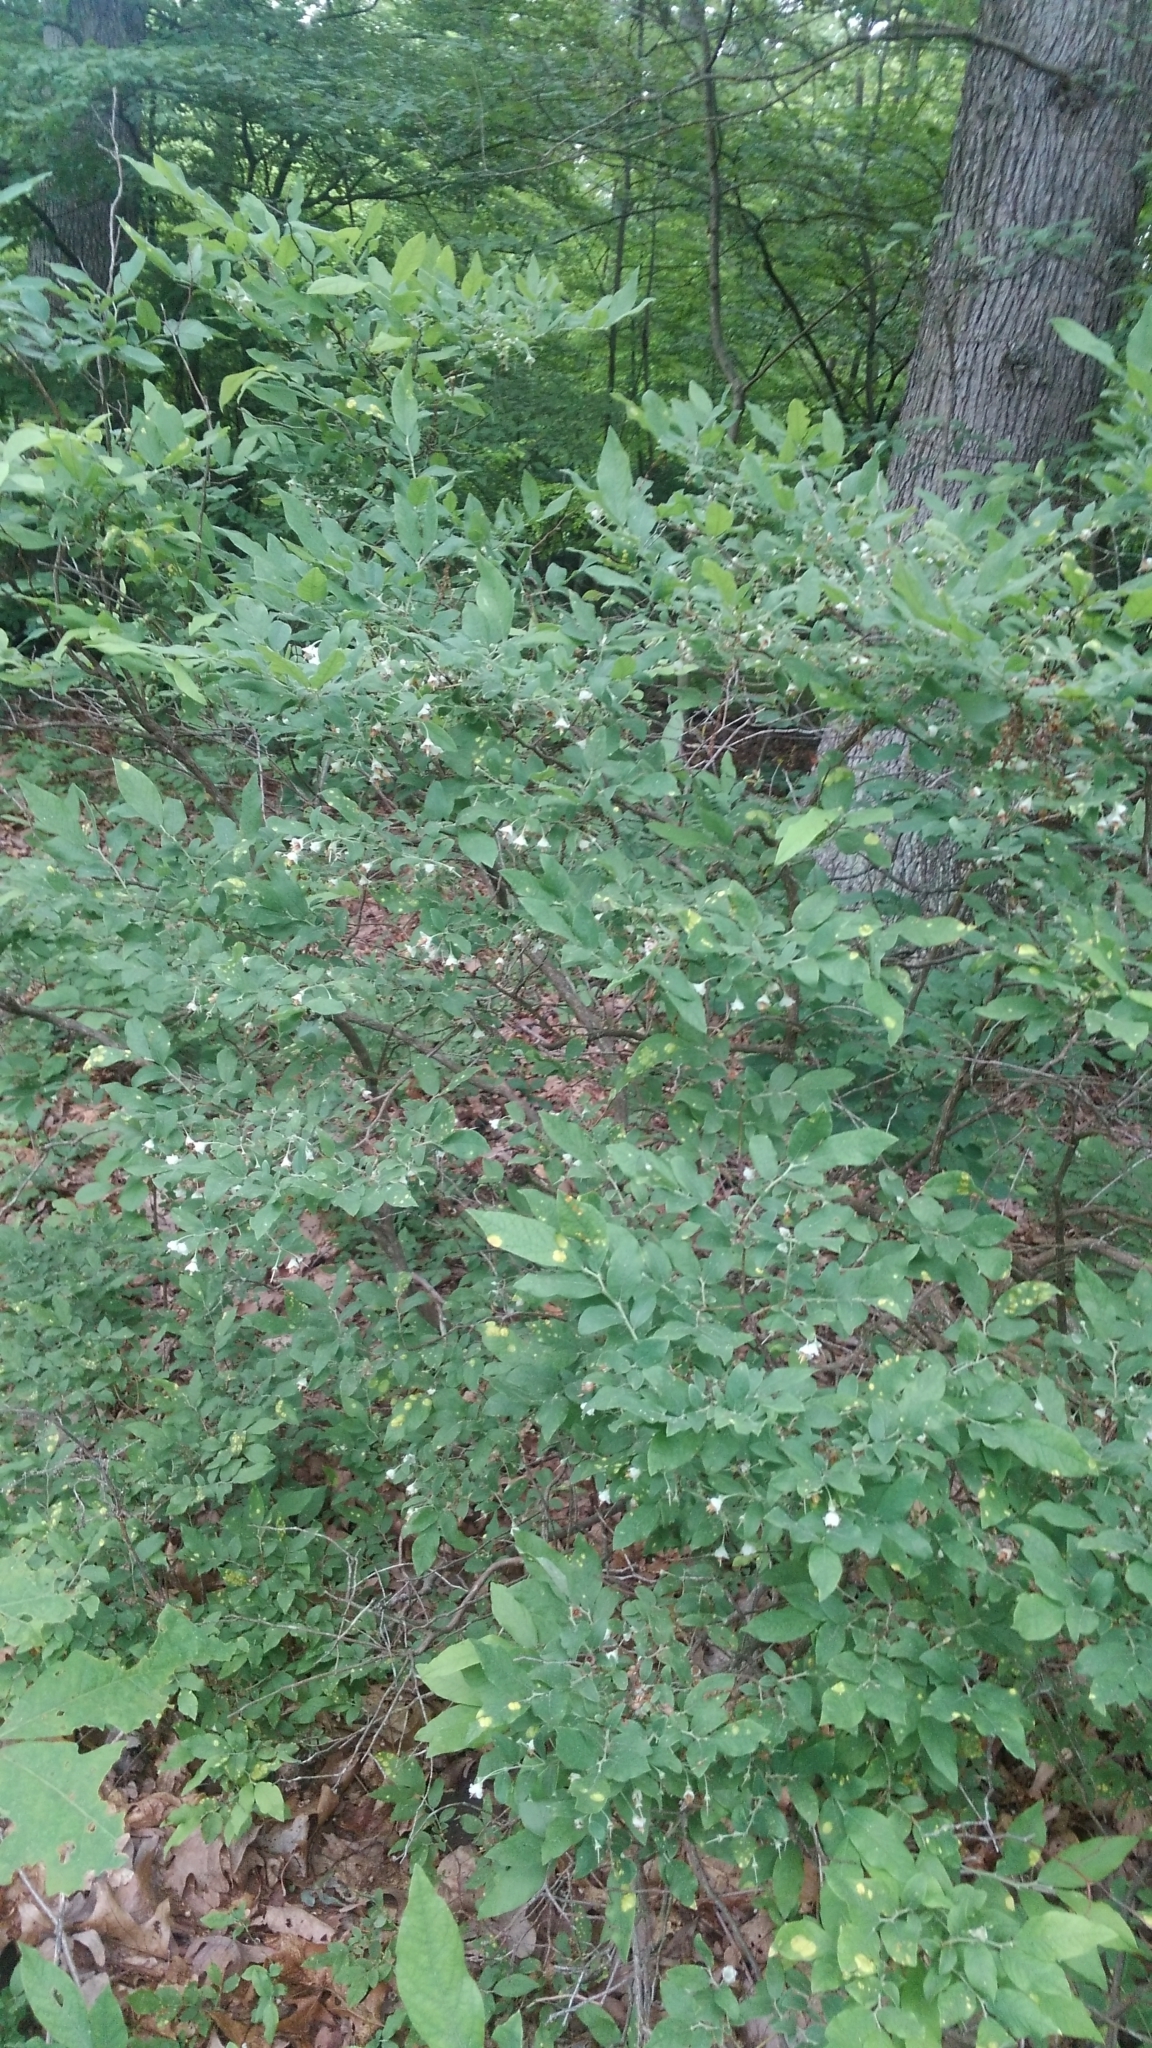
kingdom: Plantae
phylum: Tracheophyta
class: Magnoliopsida
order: Ericales
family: Ericaceae
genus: Vaccinium
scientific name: Vaccinium stamineum
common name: Deerberry
